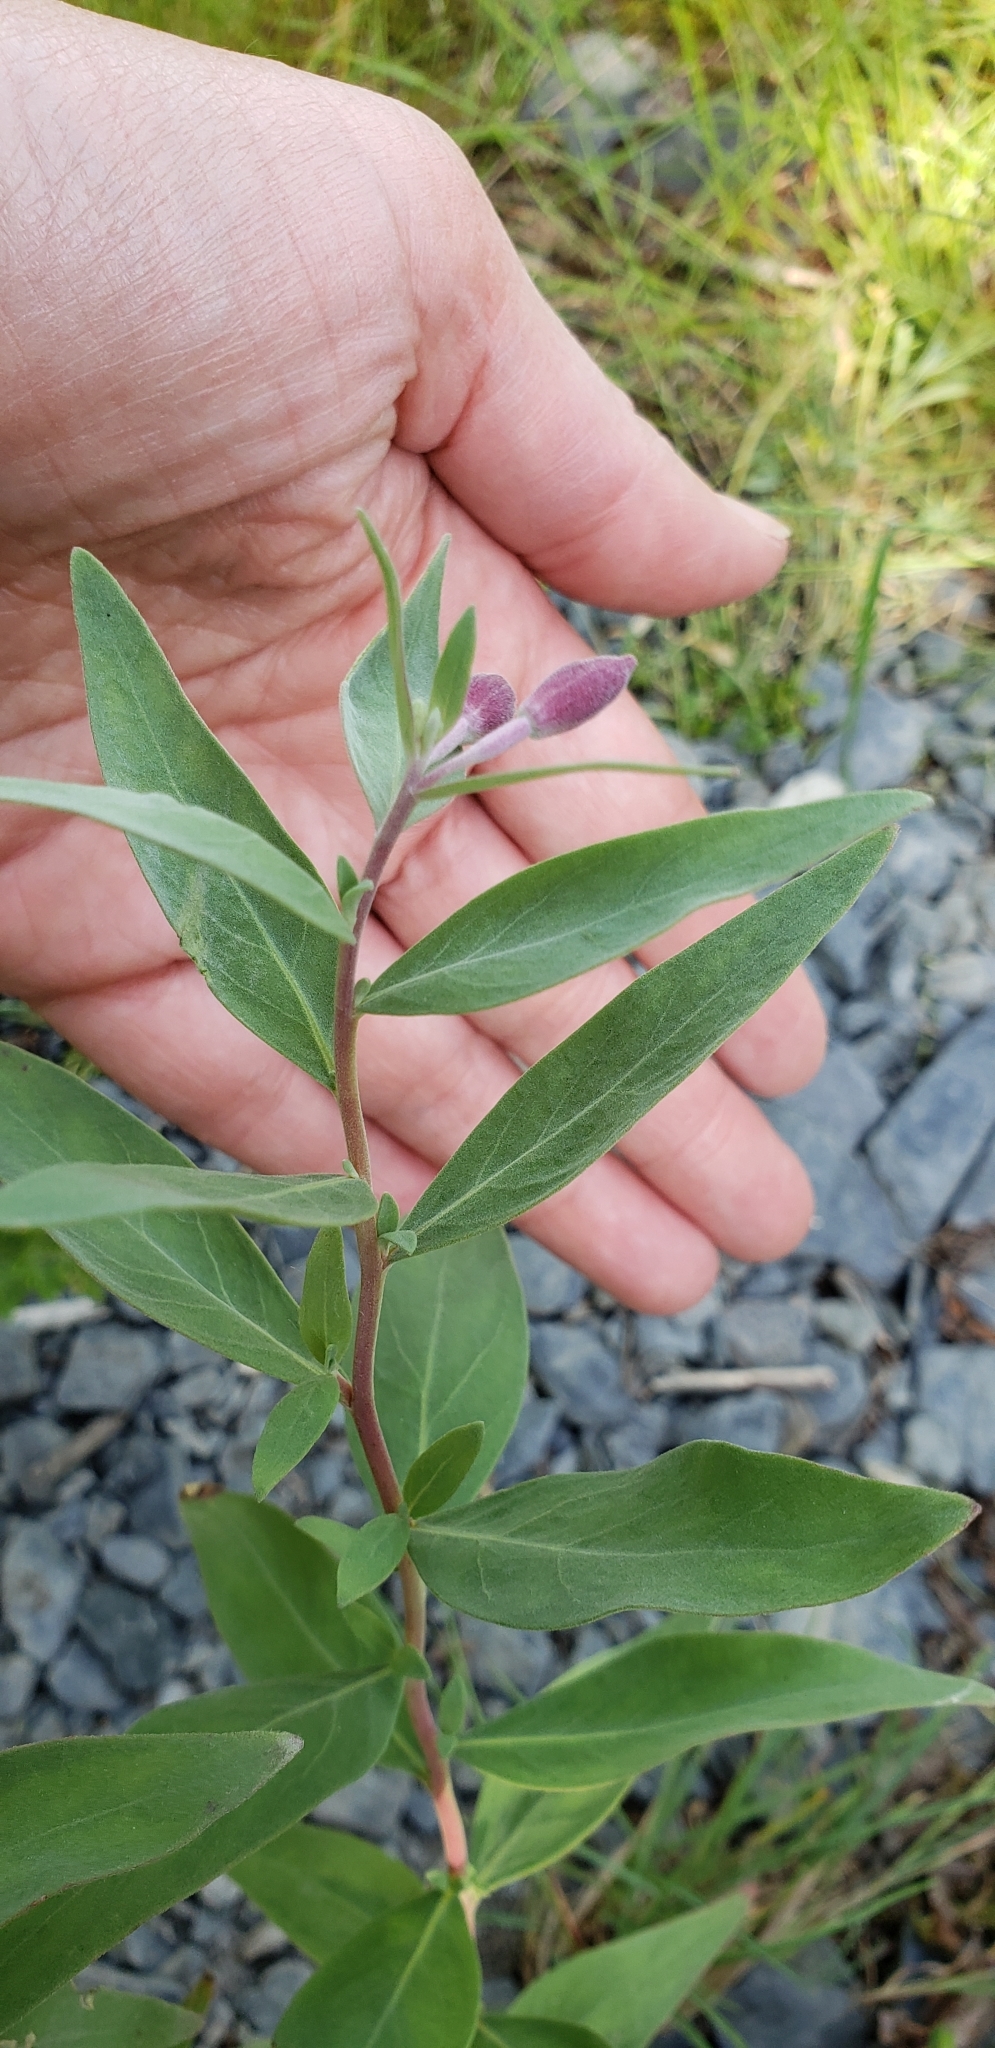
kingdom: Plantae
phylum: Tracheophyta
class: Magnoliopsida
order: Myrtales
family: Onagraceae
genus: Chamaenerion
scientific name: Chamaenerion latifolium
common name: Dwarf fireweed
